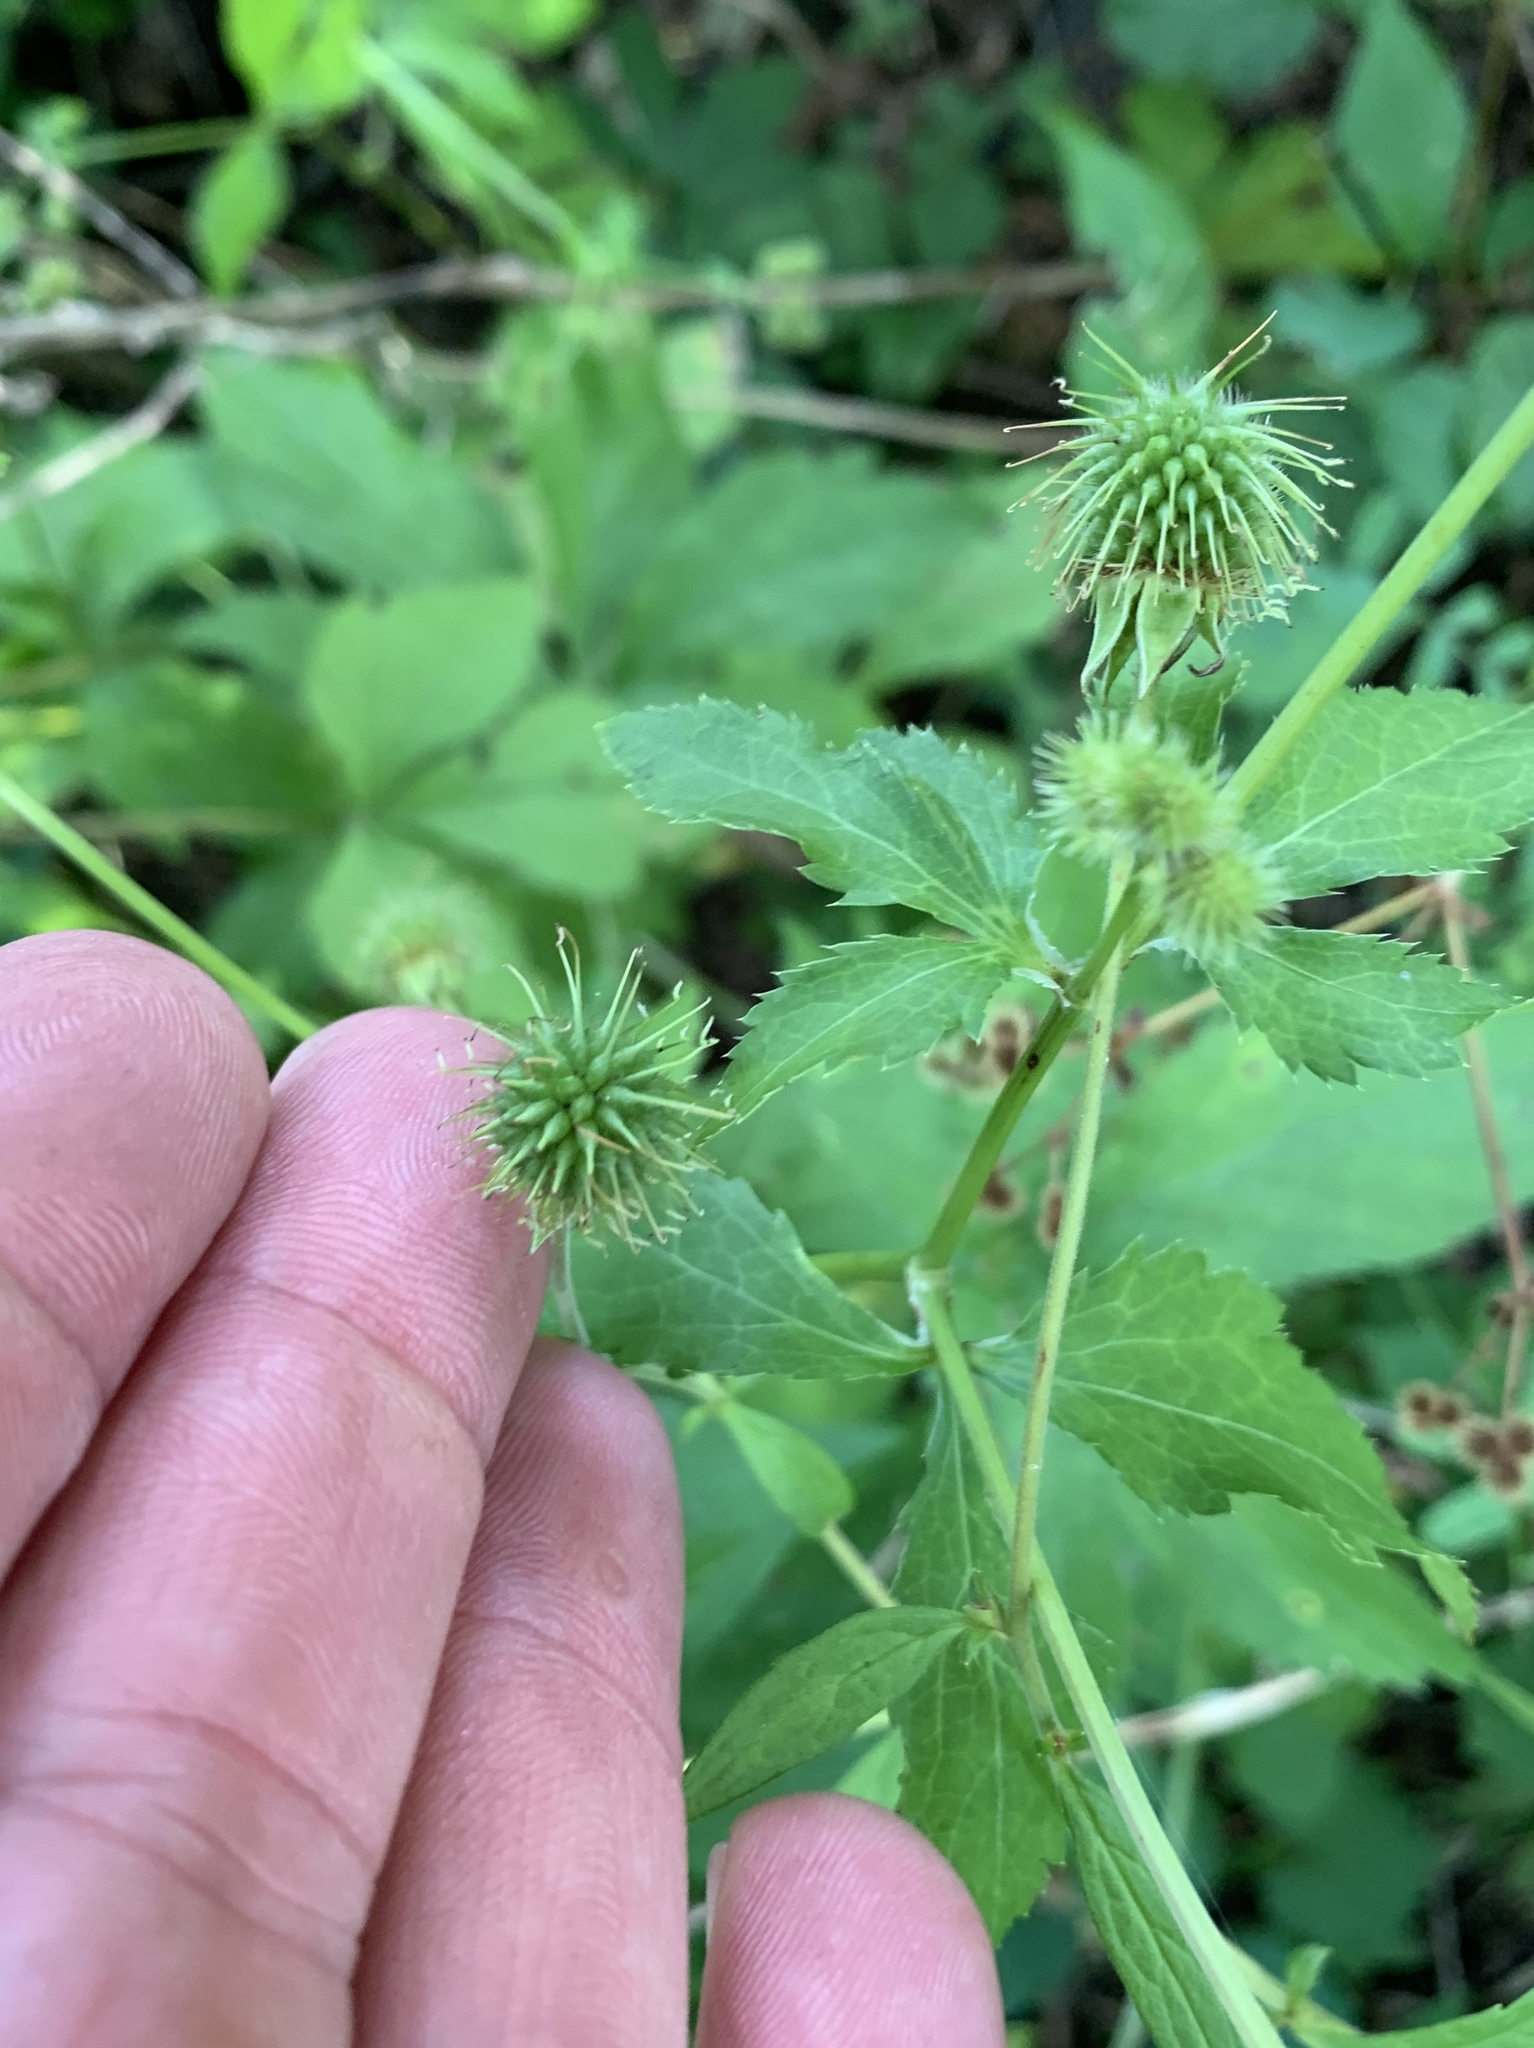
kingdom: Plantae
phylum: Tracheophyta
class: Magnoliopsida
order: Rosales
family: Rosaceae
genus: Geum
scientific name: Geum canadense
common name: White avens
